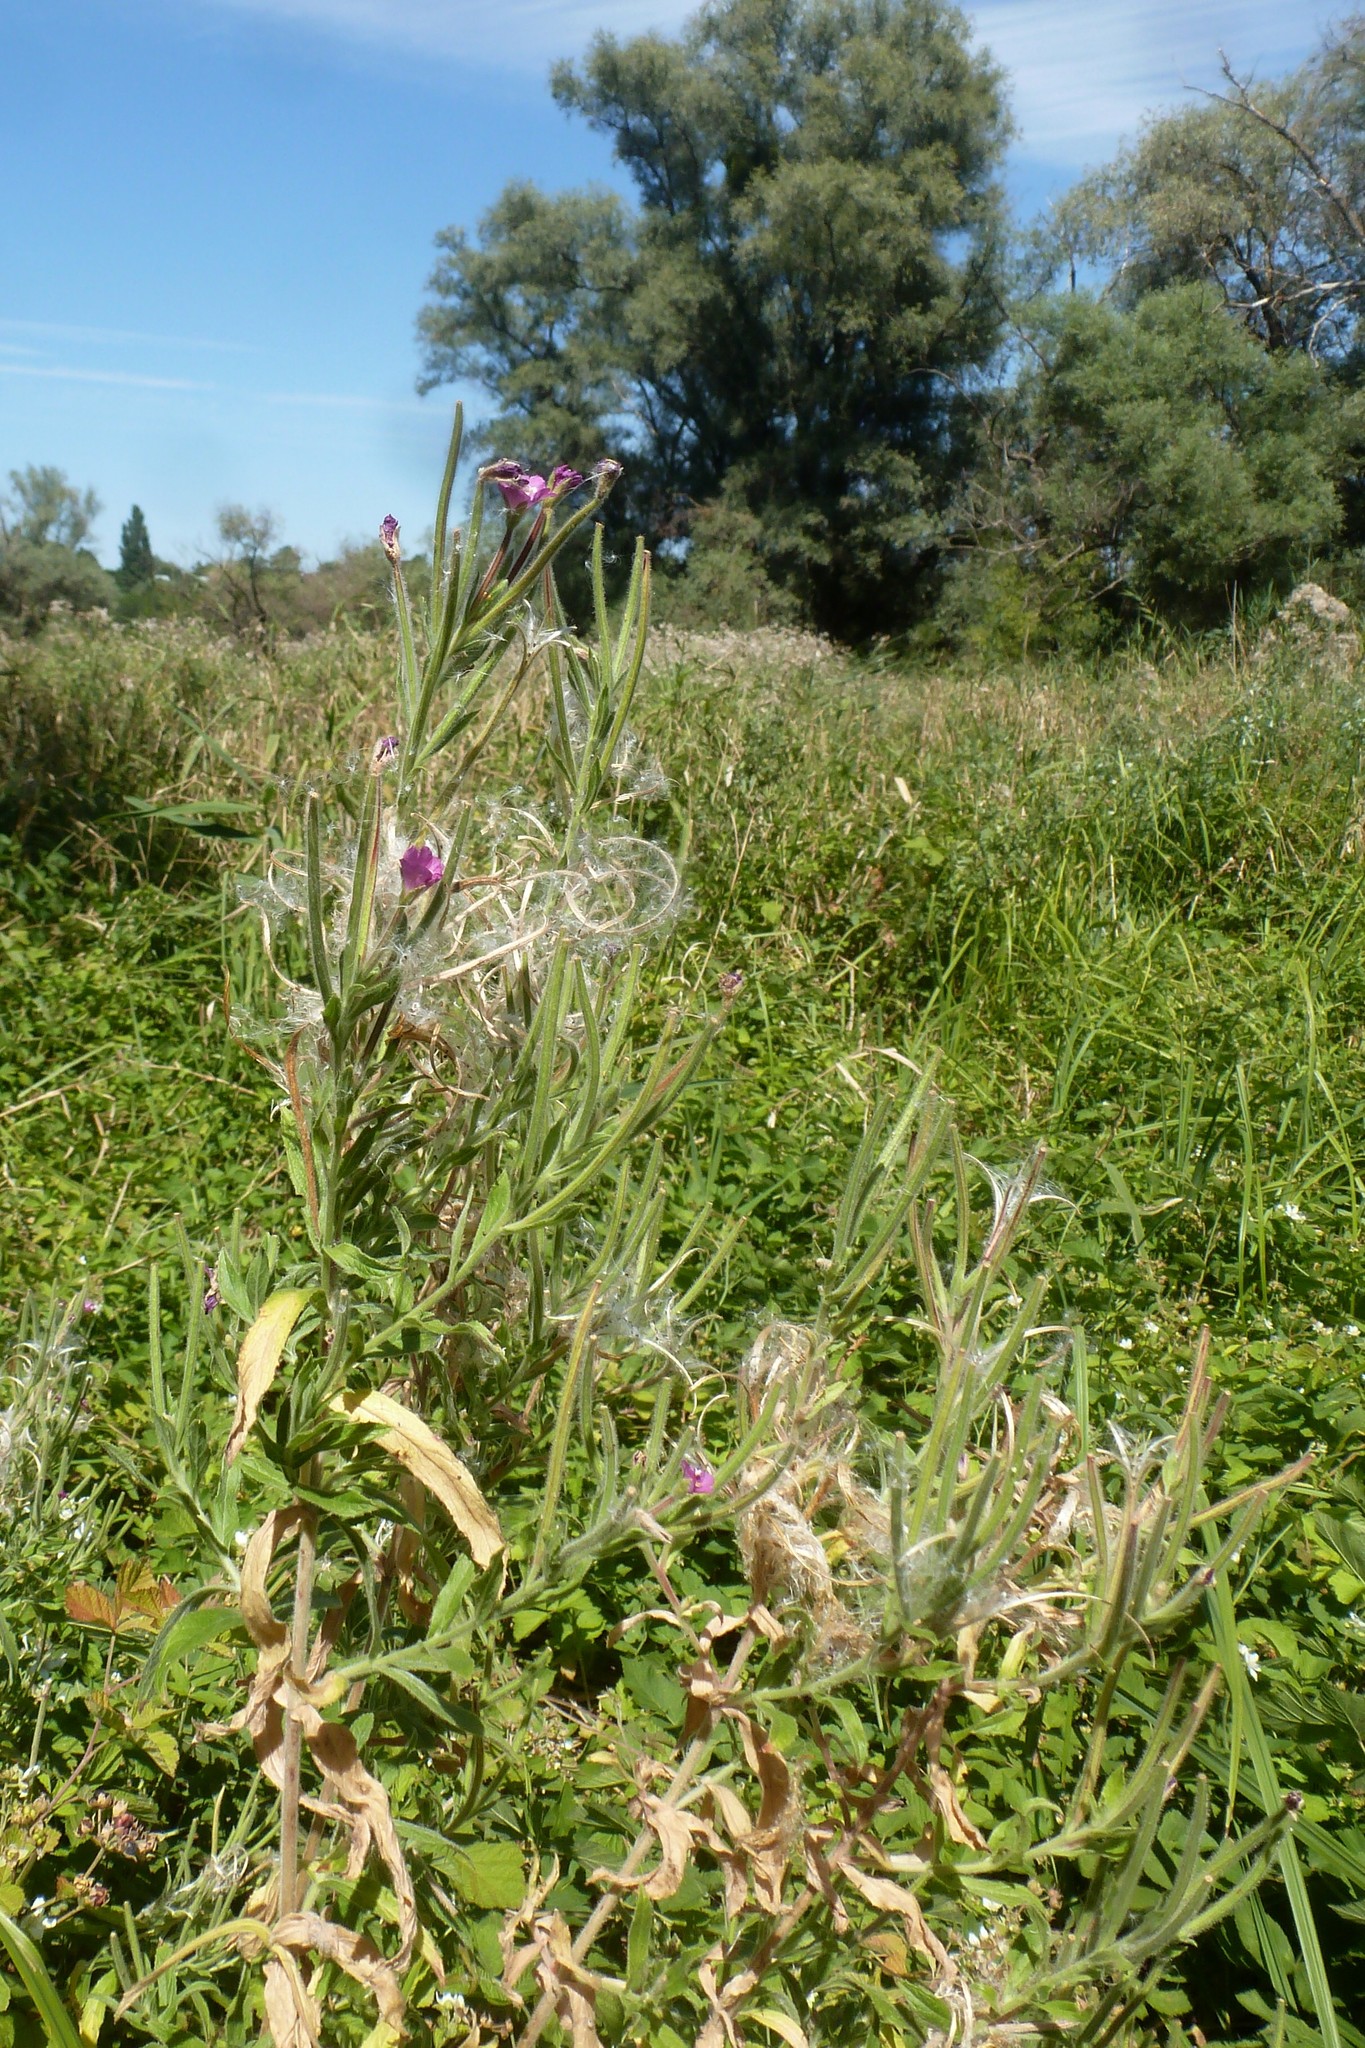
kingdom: Plantae
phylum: Tracheophyta
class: Magnoliopsida
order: Myrtales
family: Onagraceae
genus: Epilobium
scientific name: Epilobium hirsutum
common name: Great willowherb
